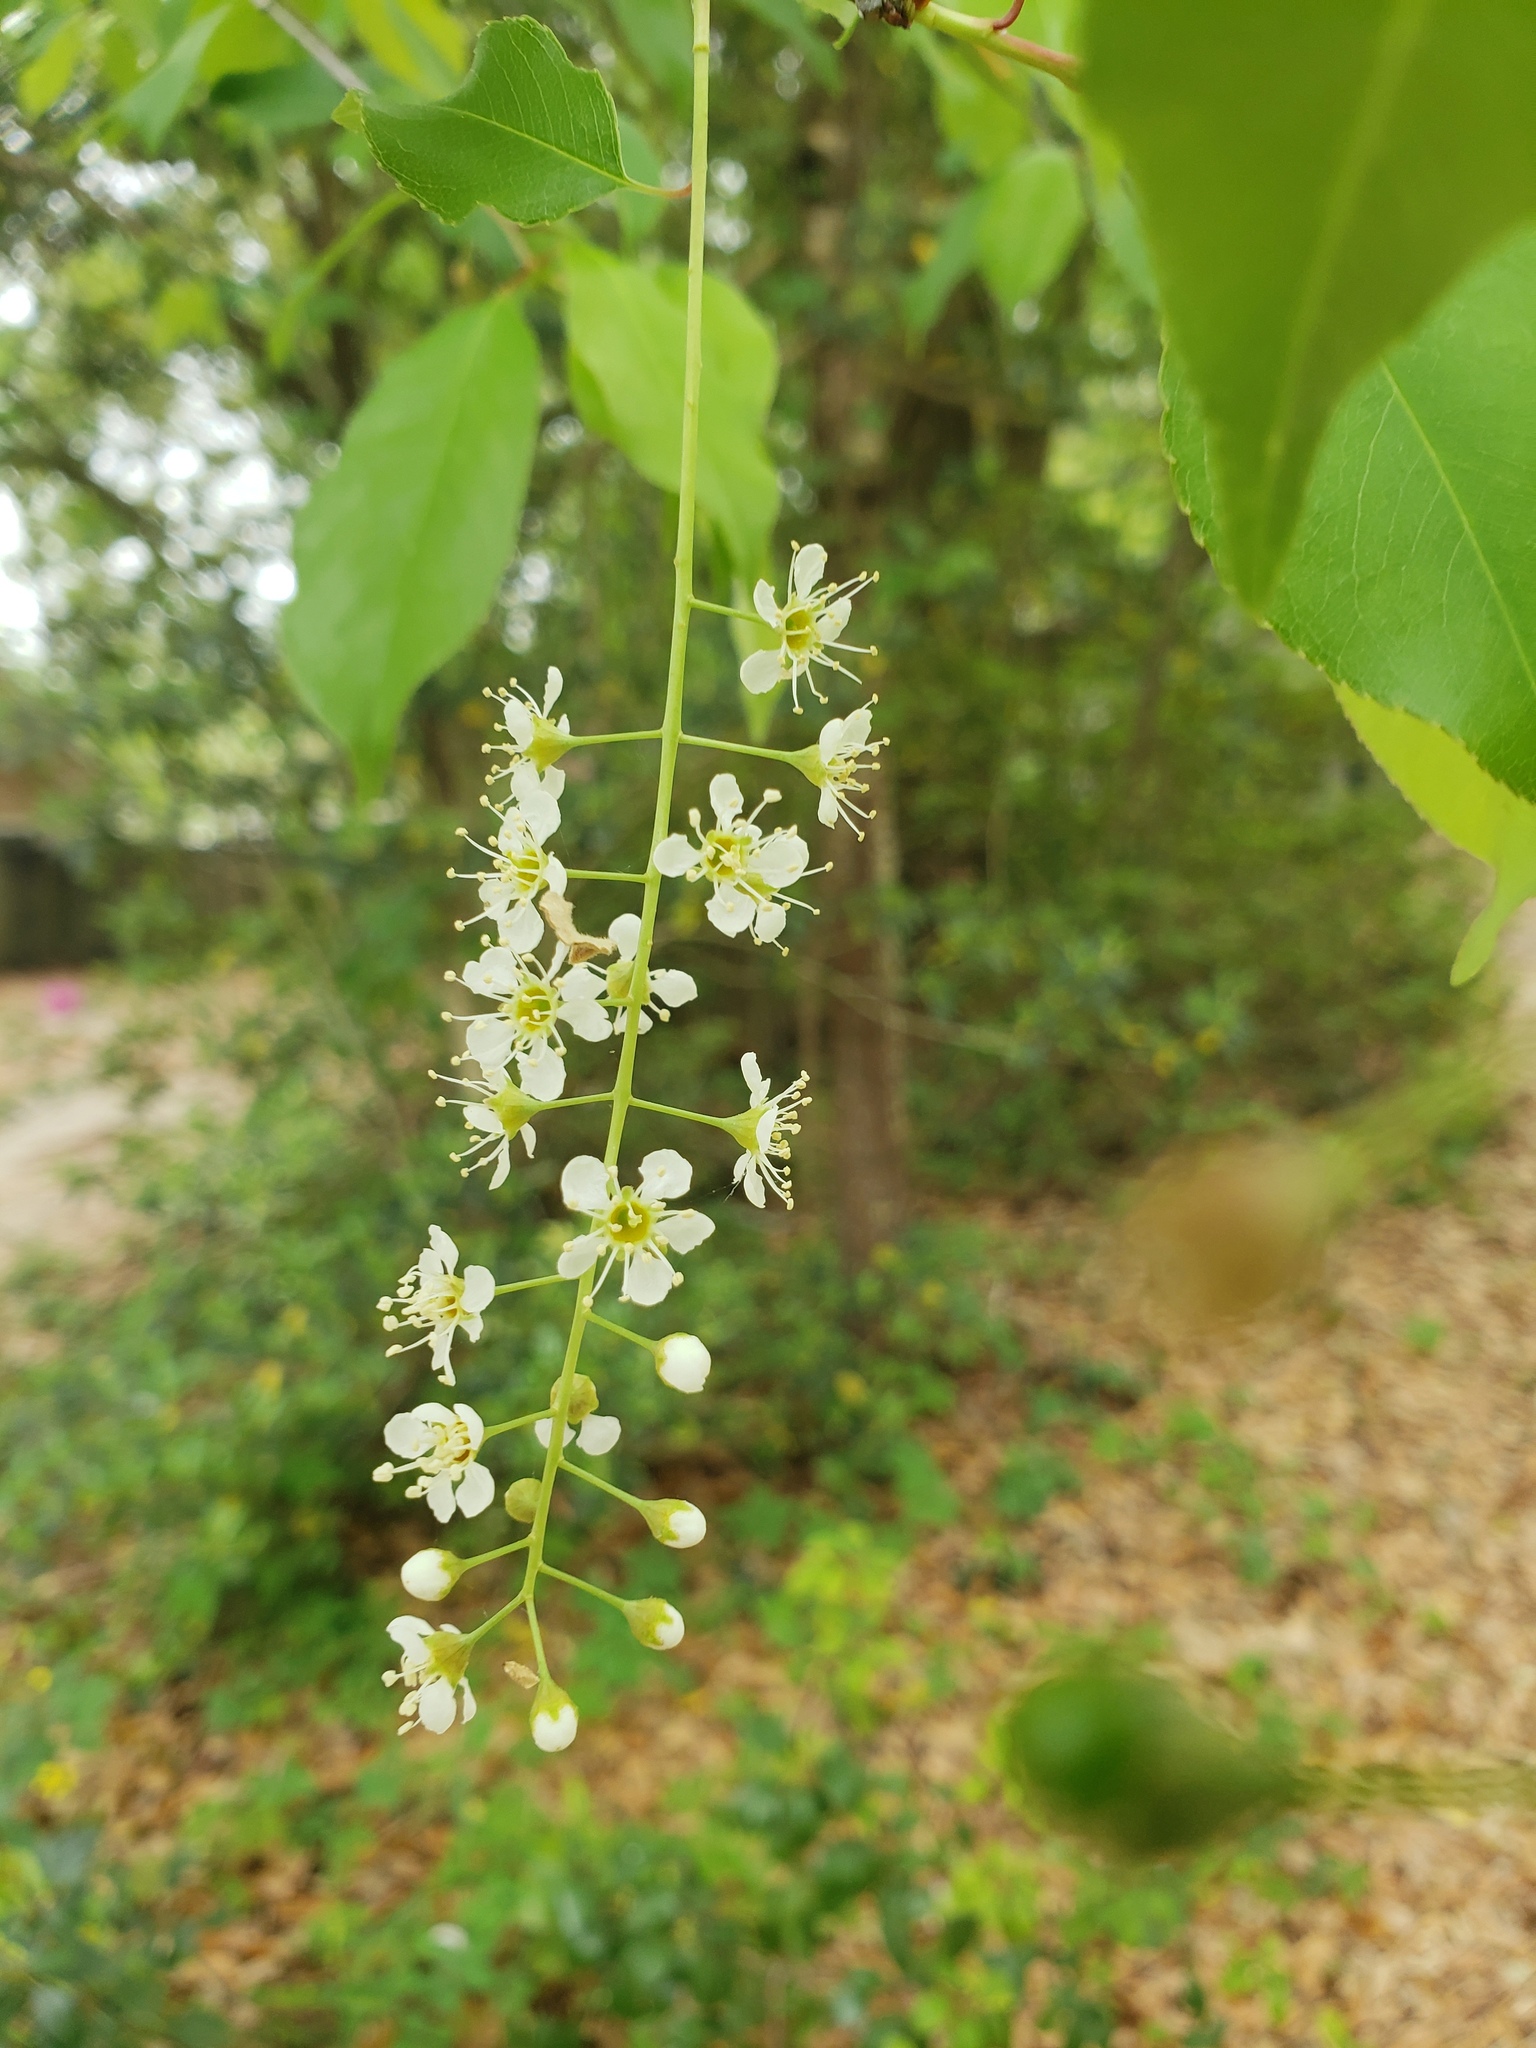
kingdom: Plantae
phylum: Tracheophyta
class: Magnoliopsida
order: Rosales
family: Rosaceae
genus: Prunus
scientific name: Prunus serotina
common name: Black cherry
